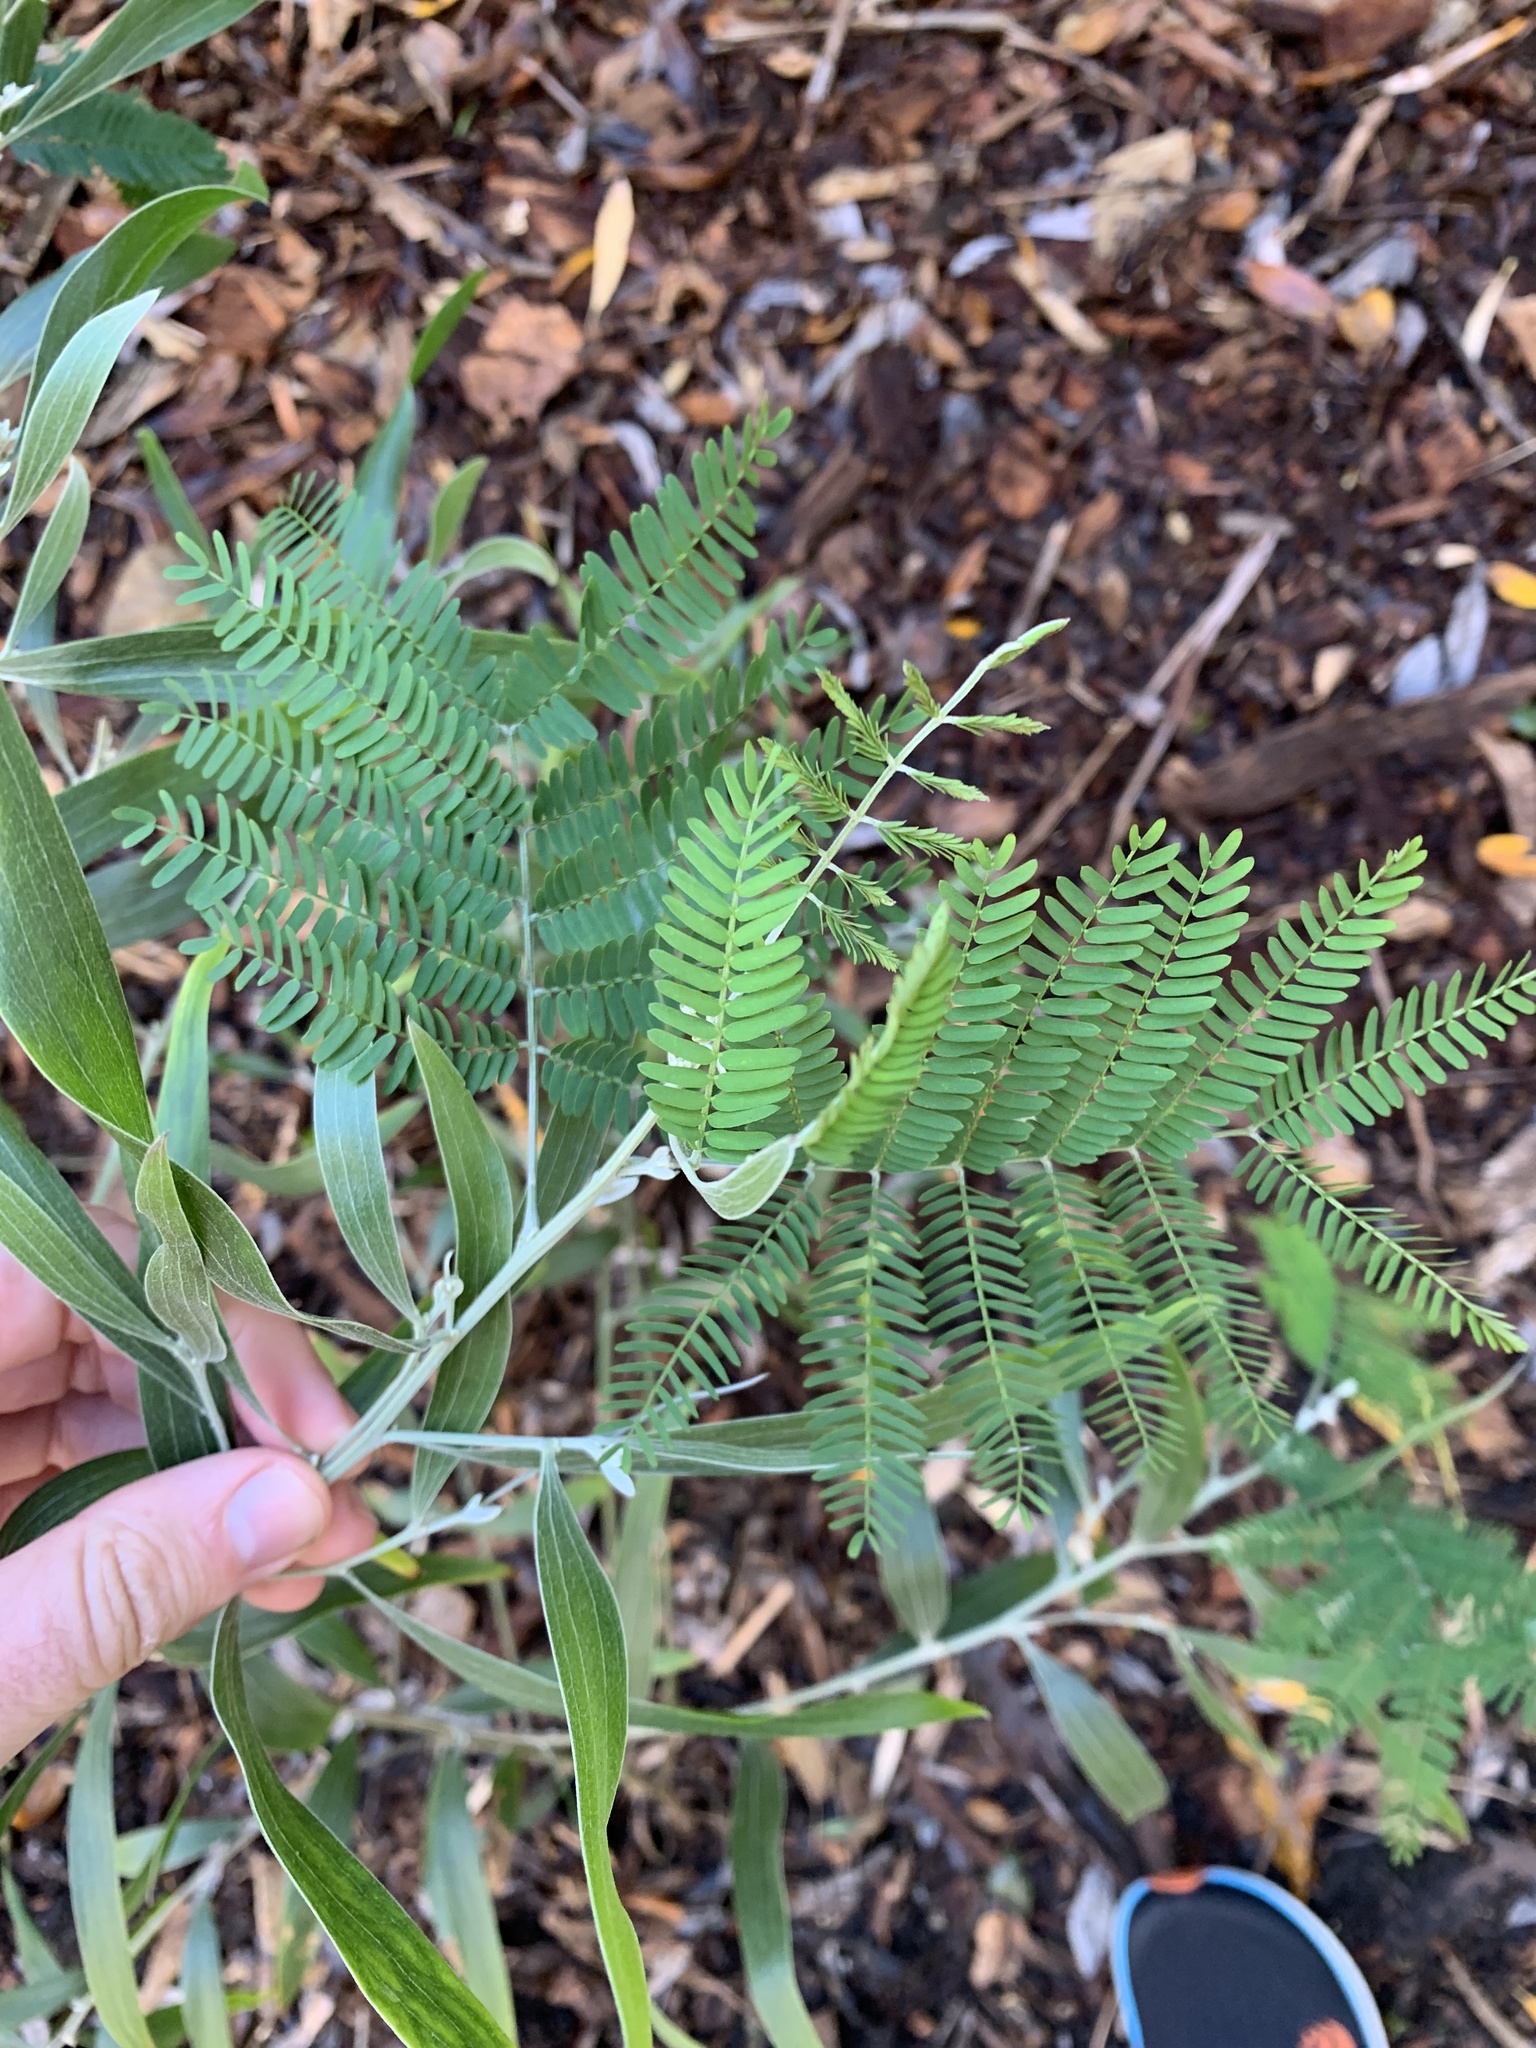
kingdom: Plantae
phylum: Tracheophyta
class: Magnoliopsida
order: Fabales
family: Fabaceae
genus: Acacia
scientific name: Acacia melanoxylon
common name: Blackwood
